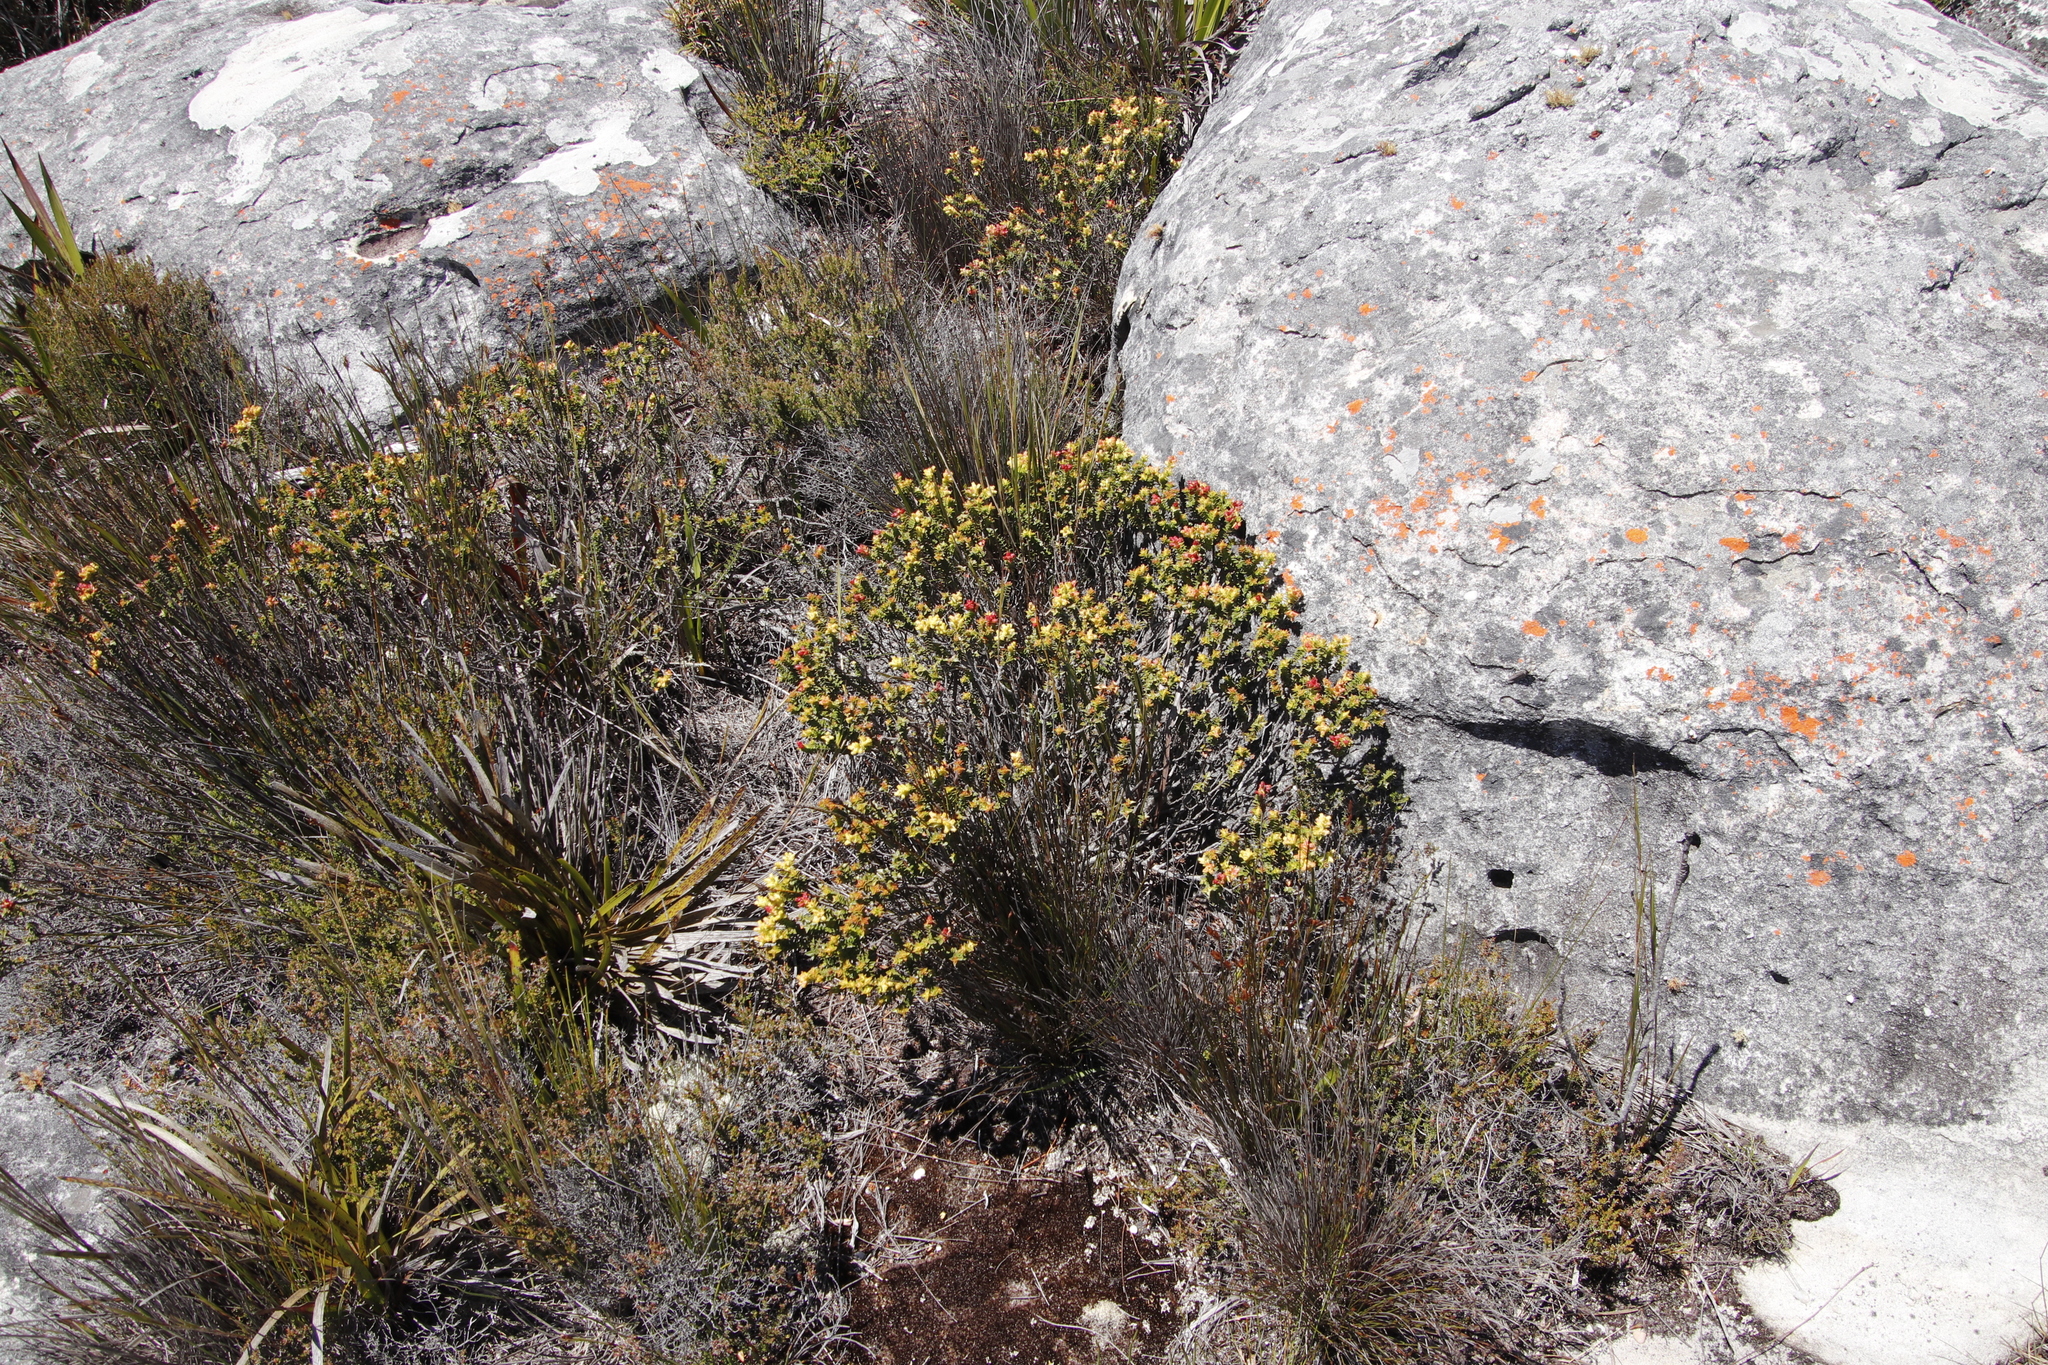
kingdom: Plantae
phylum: Tracheophyta
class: Magnoliopsida
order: Myrtales
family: Penaeaceae
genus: Penaea
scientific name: Penaea mucronata
